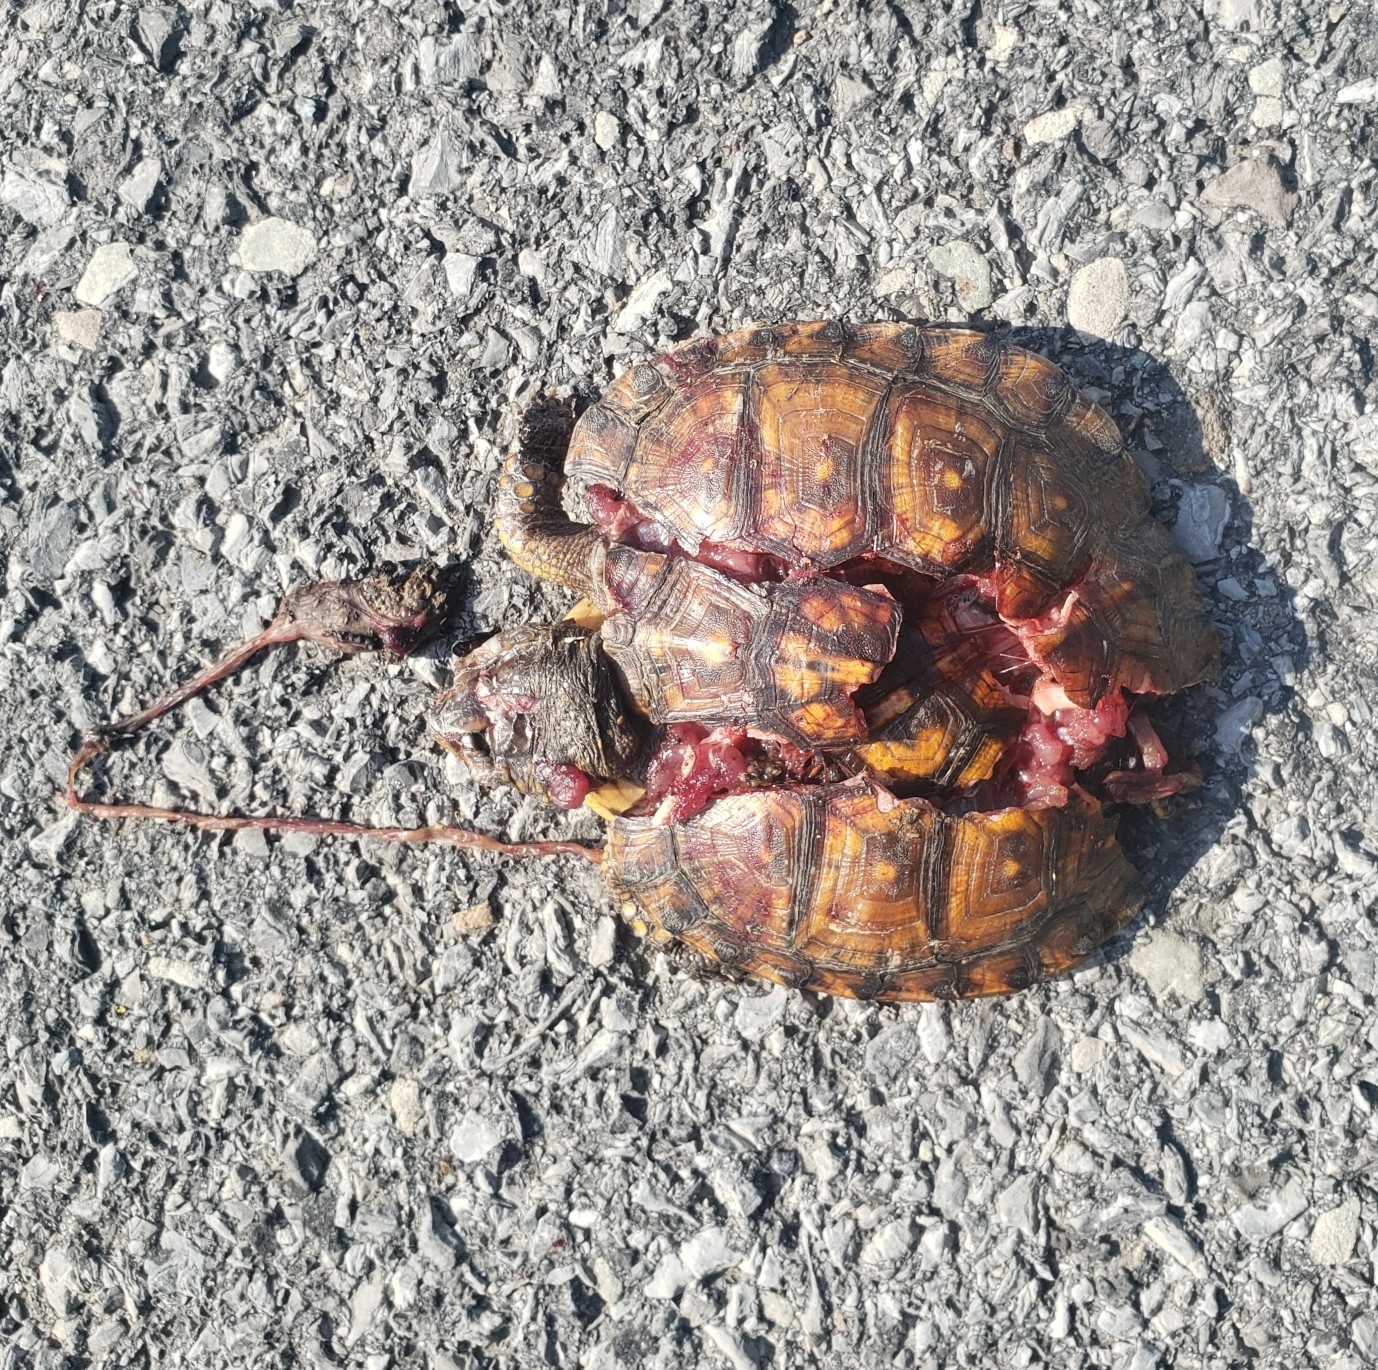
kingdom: Animalia
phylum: Chordata
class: Testudines
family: Emydidae
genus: Terrapene
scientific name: Terrapene carolina
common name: Common box turtle
